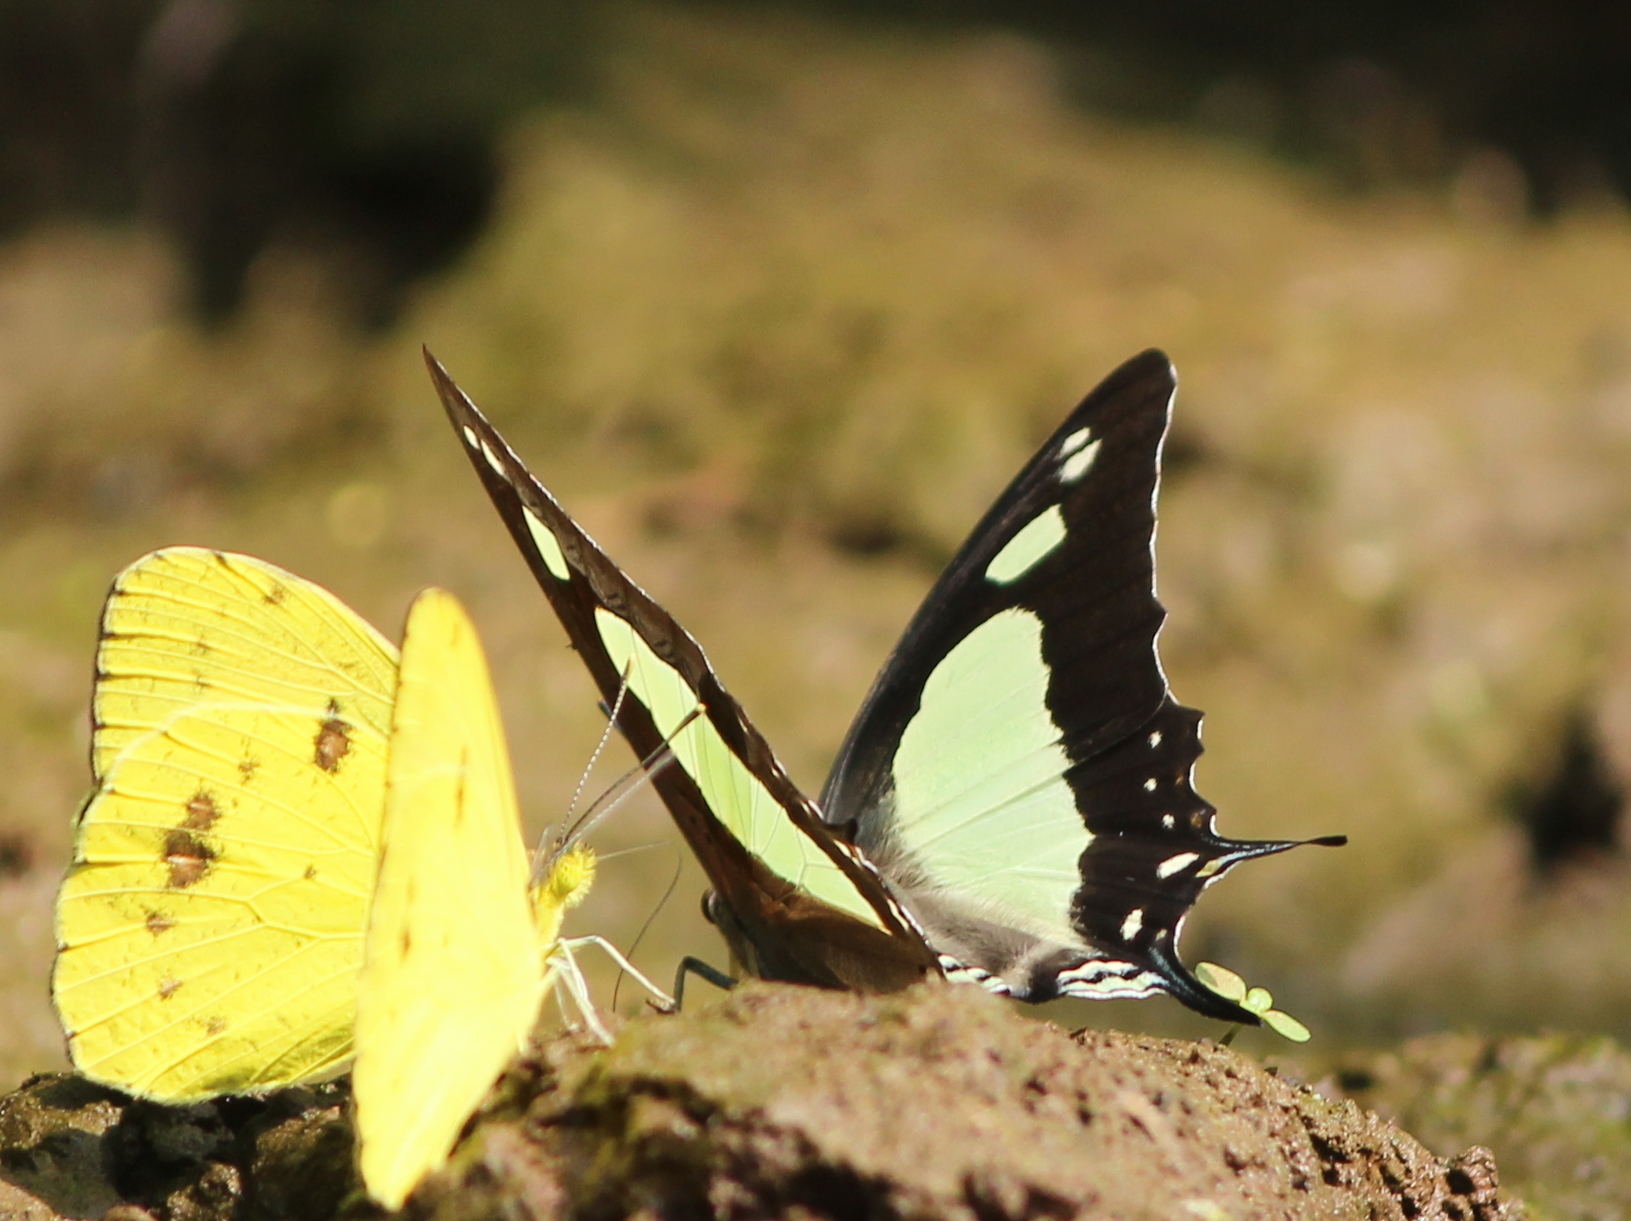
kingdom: Animalia
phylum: Arthropoda
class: Insecta
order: Lepidoptera
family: Nymphalidae
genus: Polyura
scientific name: Polyura agrarius
